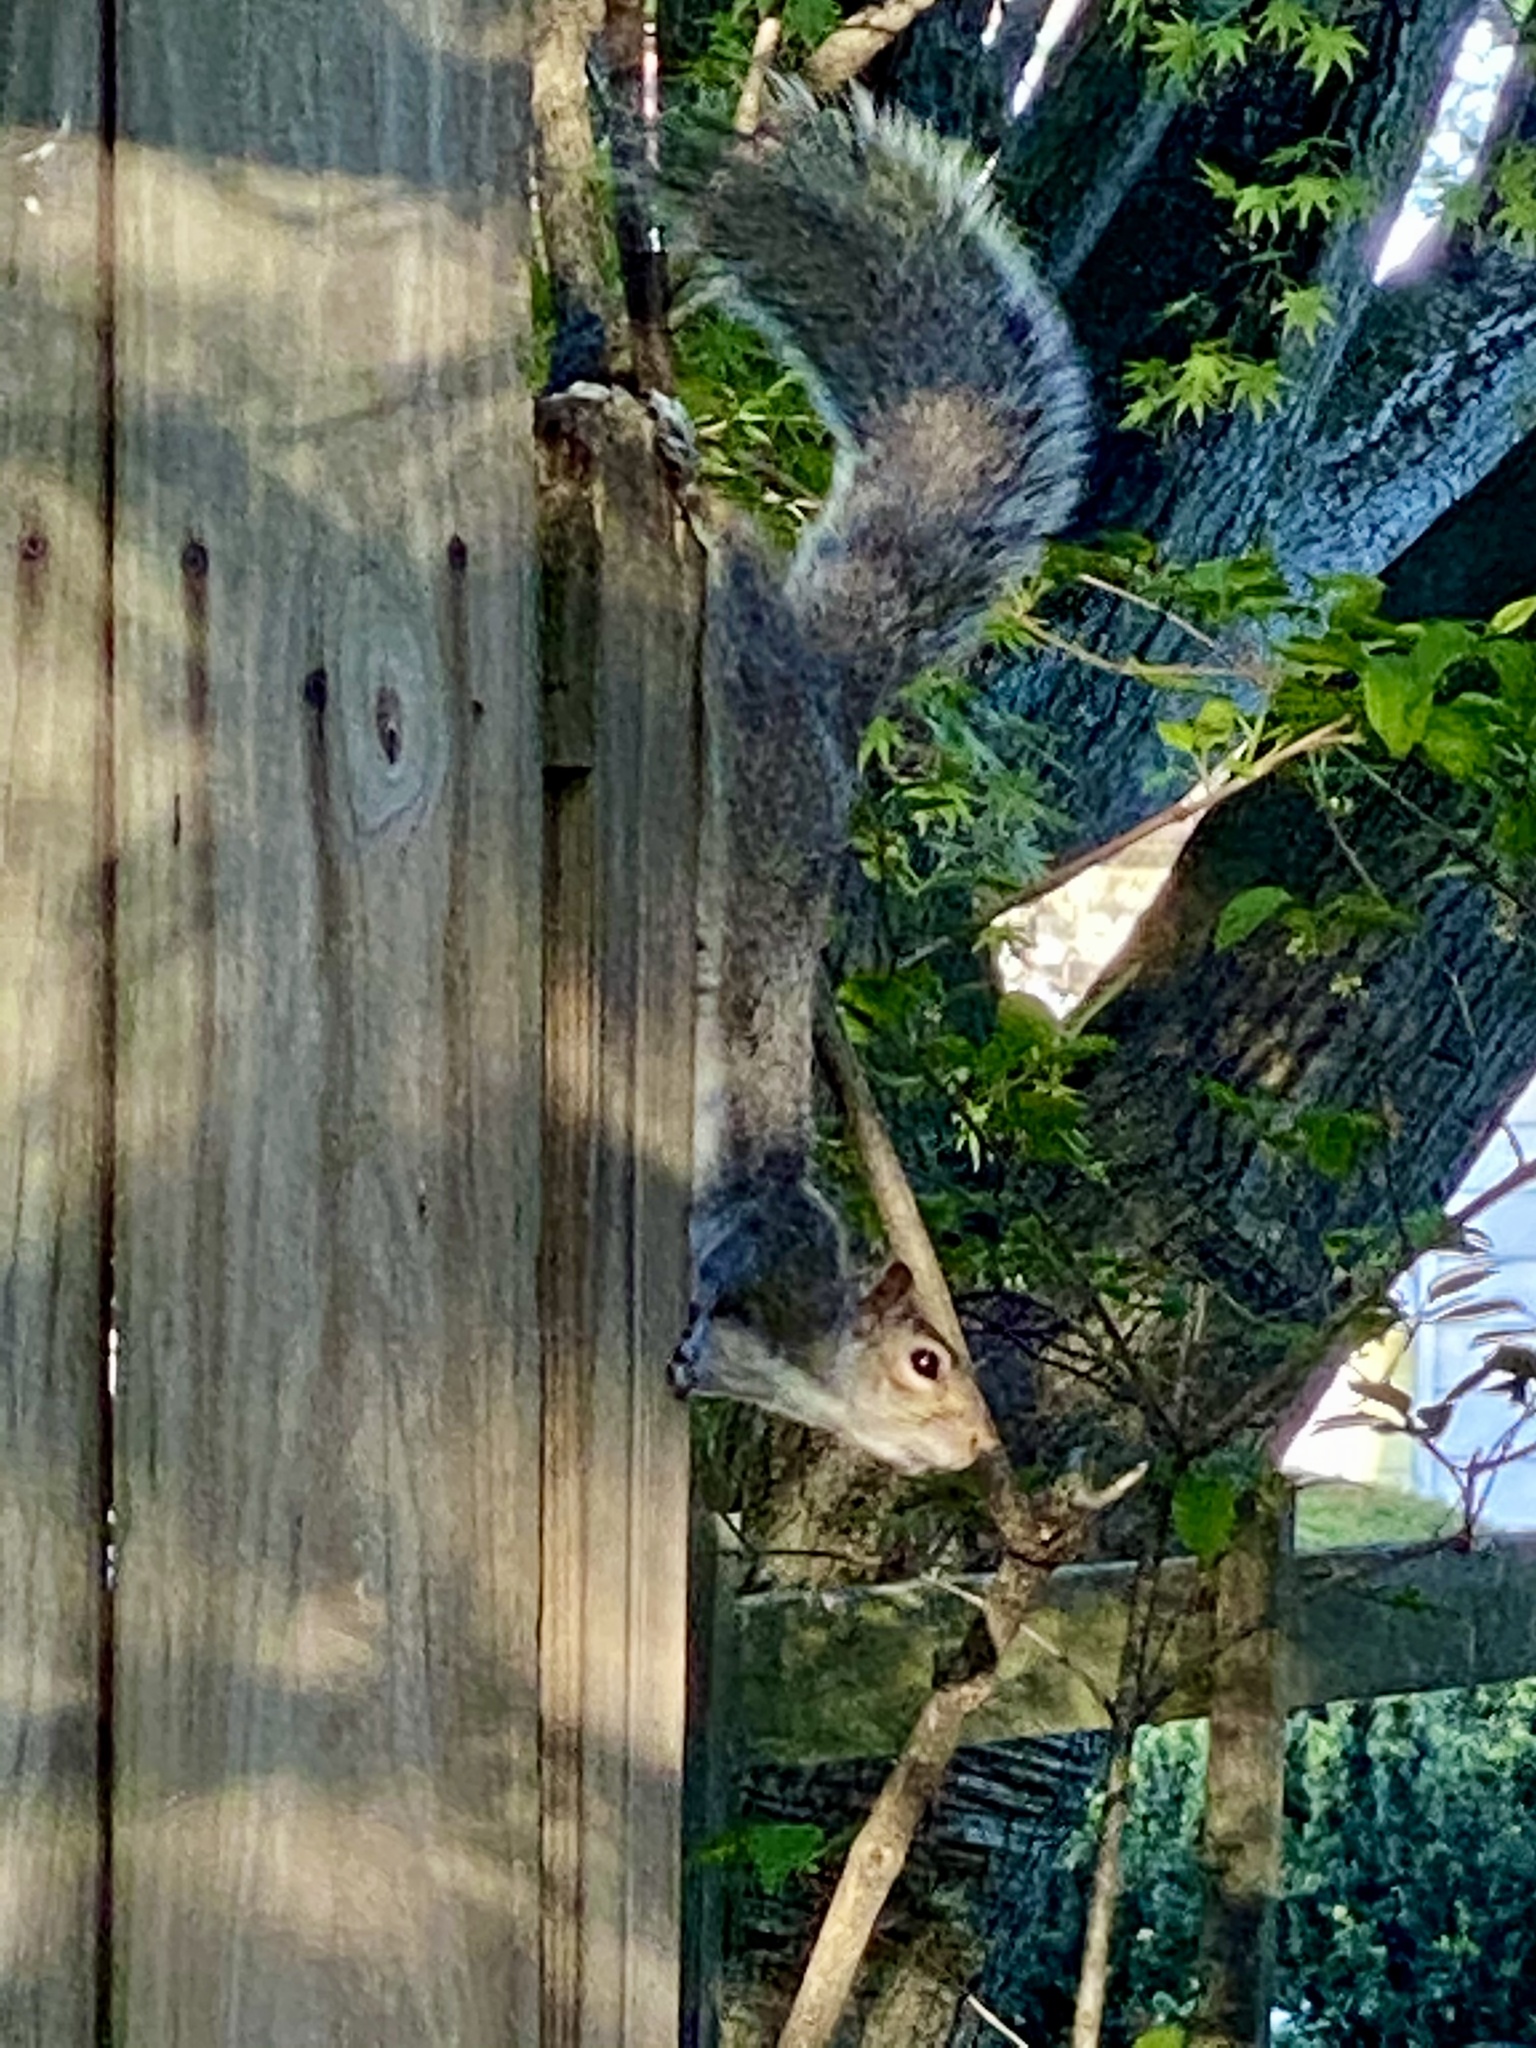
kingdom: Animalia
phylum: Chordata
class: Mammalia
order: Rodentia
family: Sciuridae
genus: Sciurus
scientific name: Sciurus carolinensis
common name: Eastern gray squirrel
